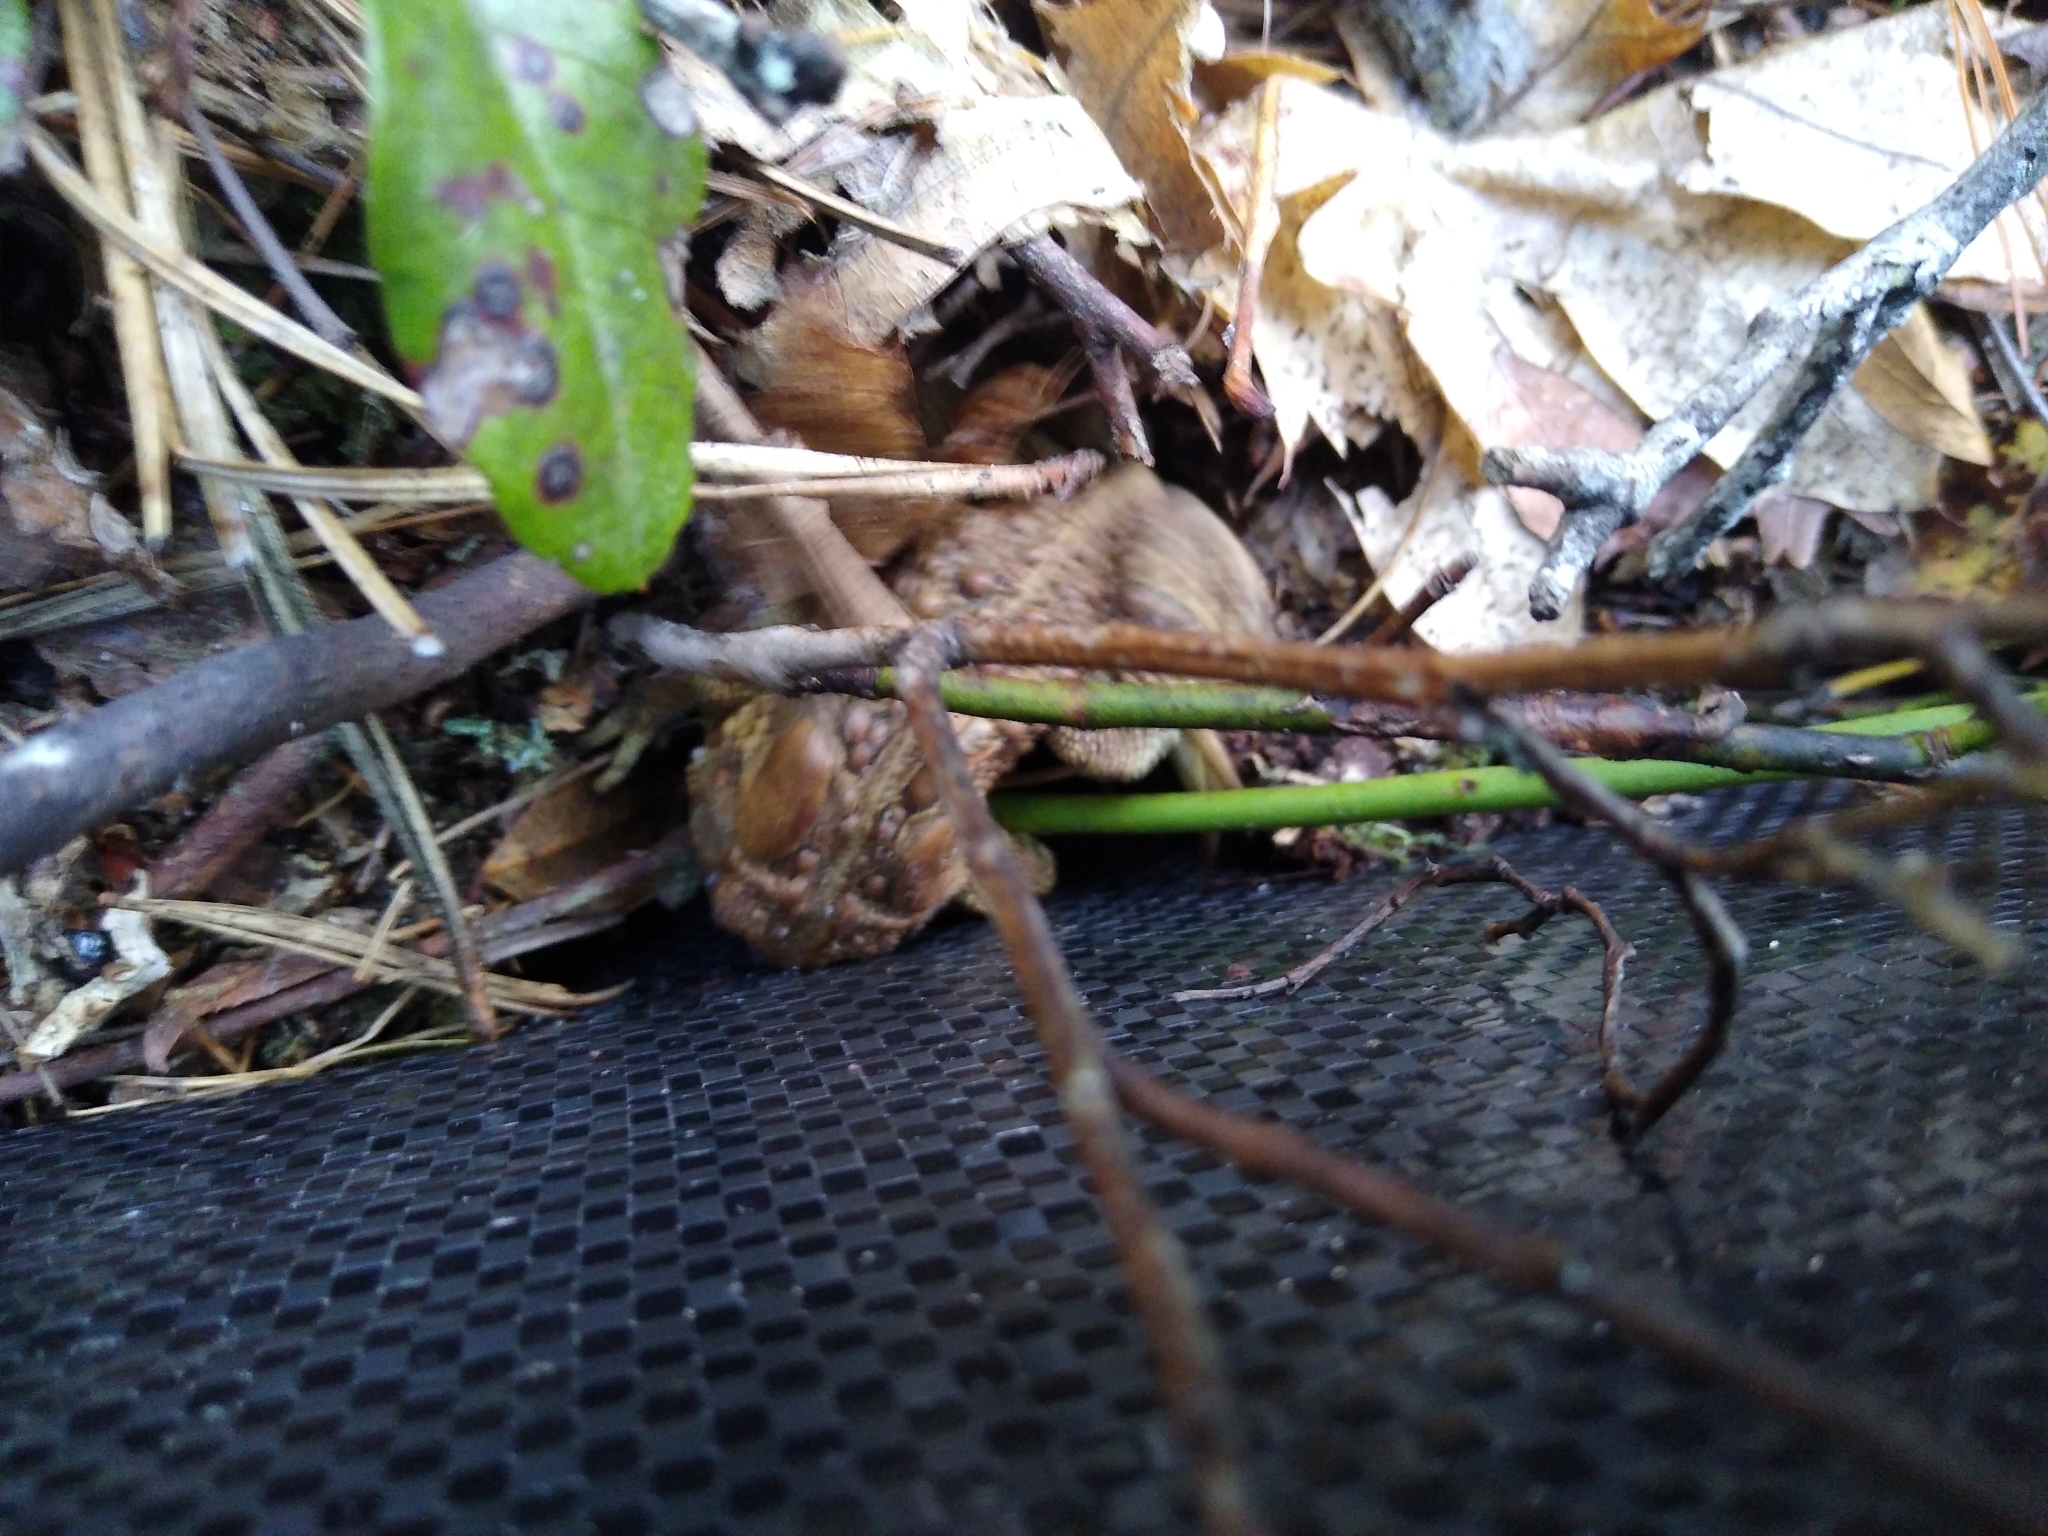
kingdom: Animalia
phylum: Chordata
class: Amphibia
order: Anura
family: Bufonidae
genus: Anaxyrus
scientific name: Anaxyrus americanus
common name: American toad
